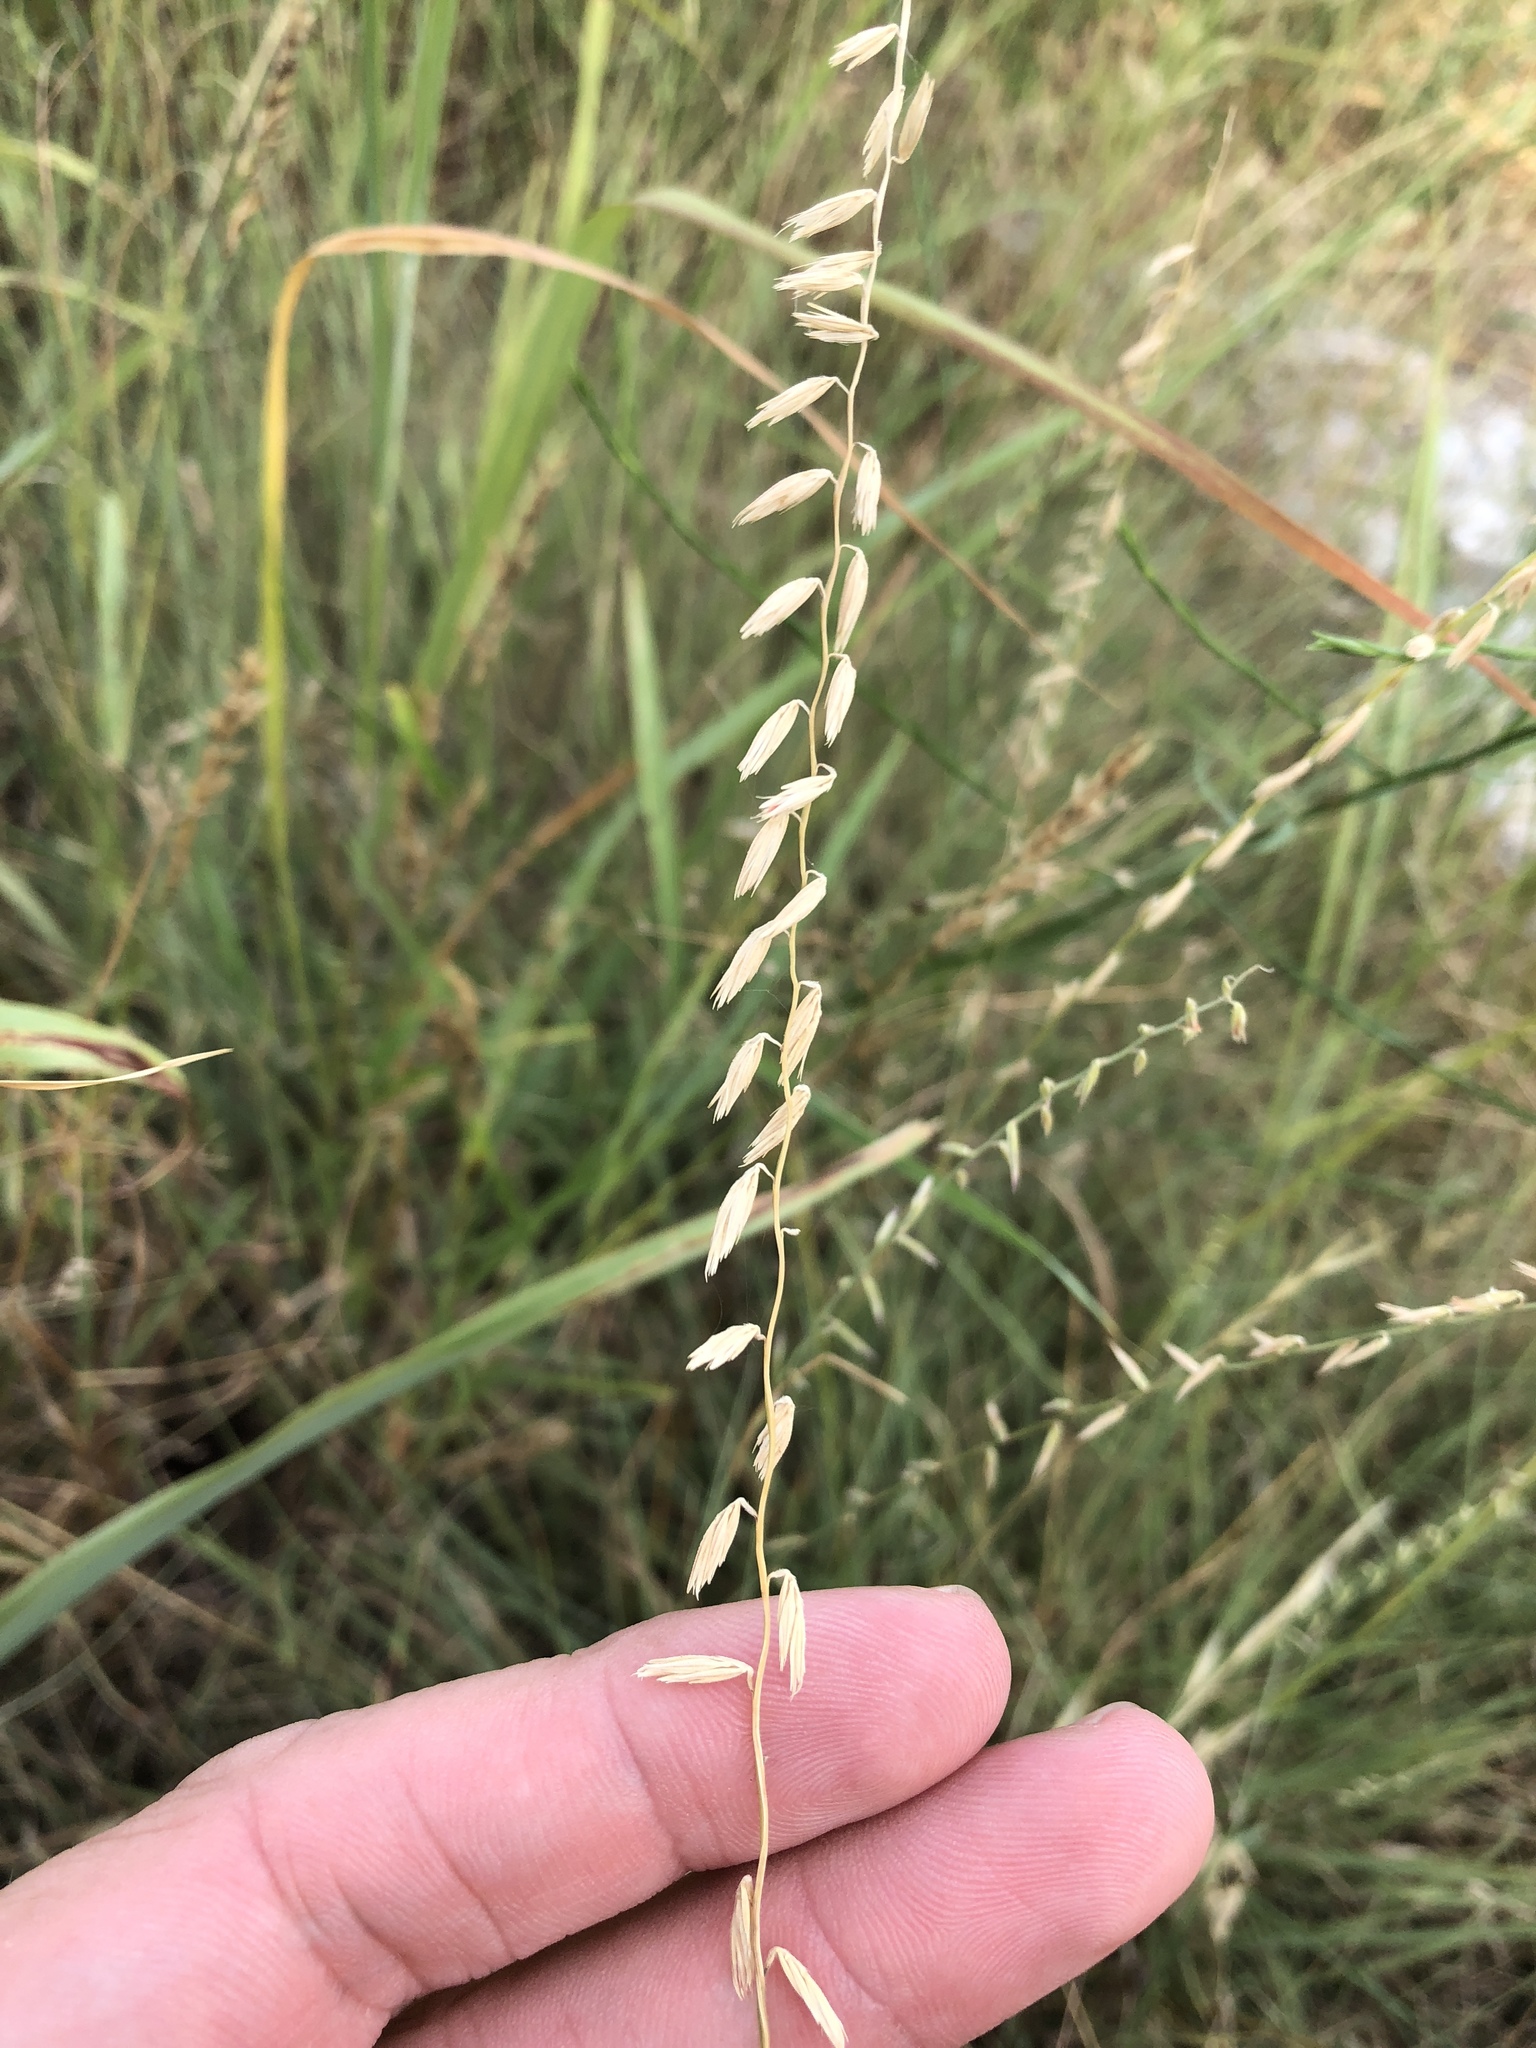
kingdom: Plantae
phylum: Tracheophyta
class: Liliopsida
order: Poales
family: Poaceae
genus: Bouteloua
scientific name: Bouteloua curtipendula
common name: Side-oats grama
